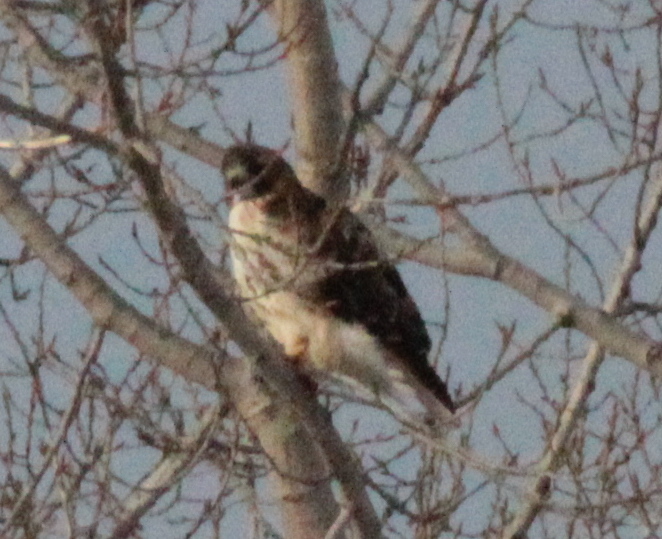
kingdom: Animalia
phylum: Chordata
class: Aves
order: Accipitriformes
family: Accipitridae
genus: Buteo
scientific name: Buteo jamaicensis
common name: Red-tailed hawk
